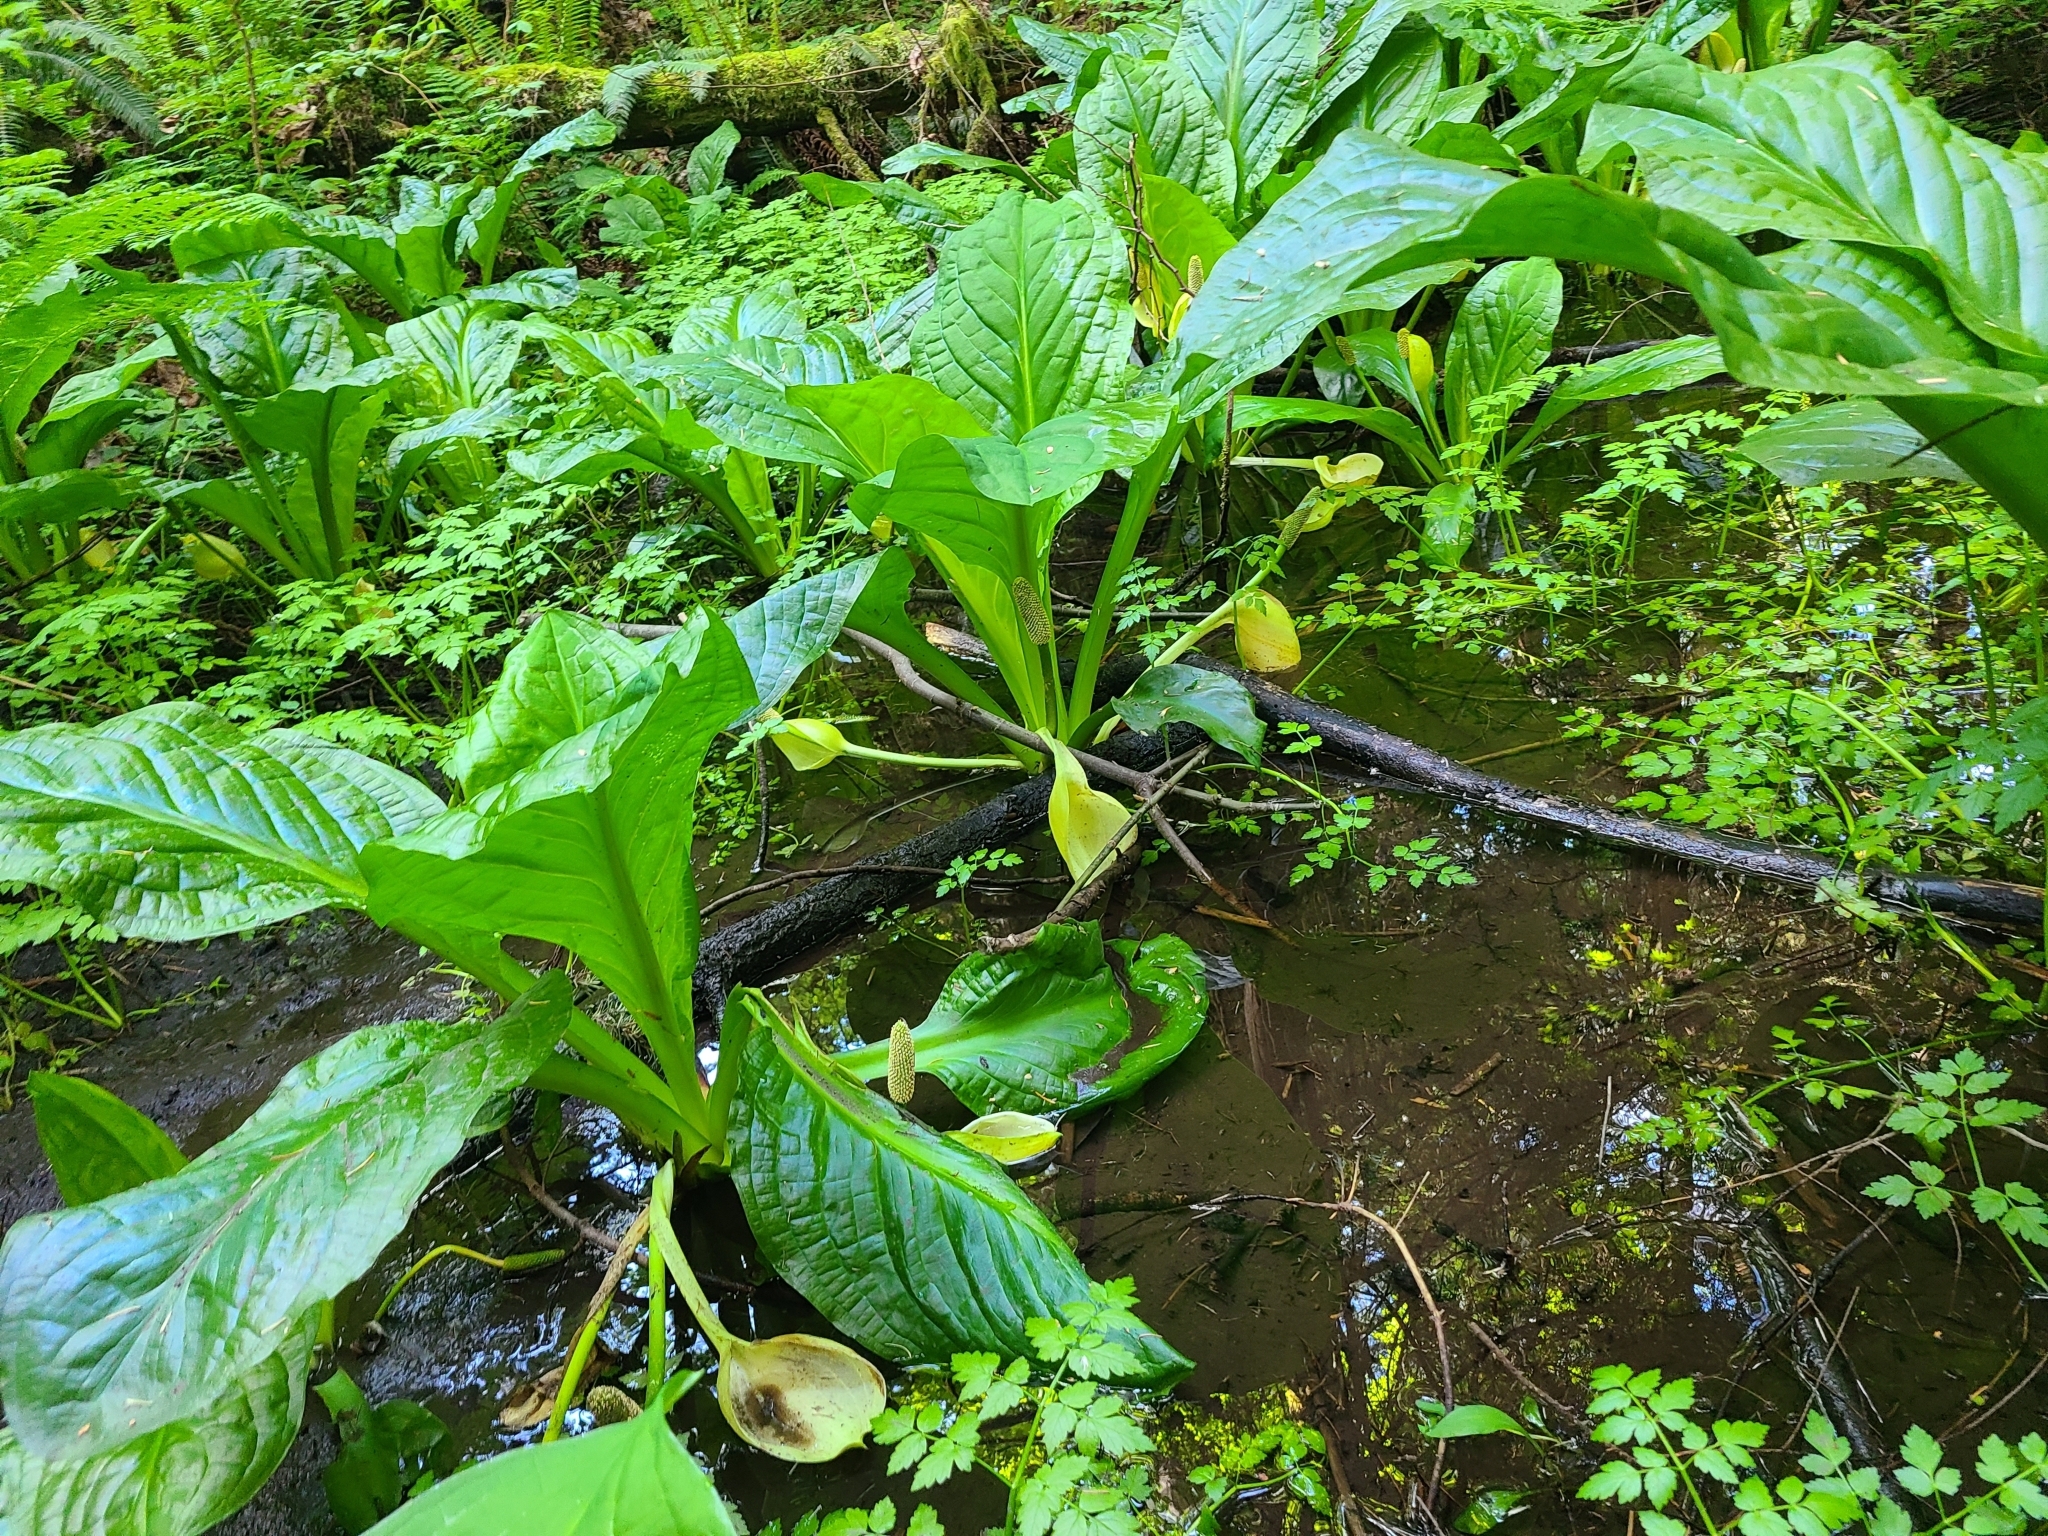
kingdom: Plantae
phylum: Tracheophyta
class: Liliopsida
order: Alismatales
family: Araceae
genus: Lysichiton
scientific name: Lysichiton americanus
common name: American skunk cabbage
